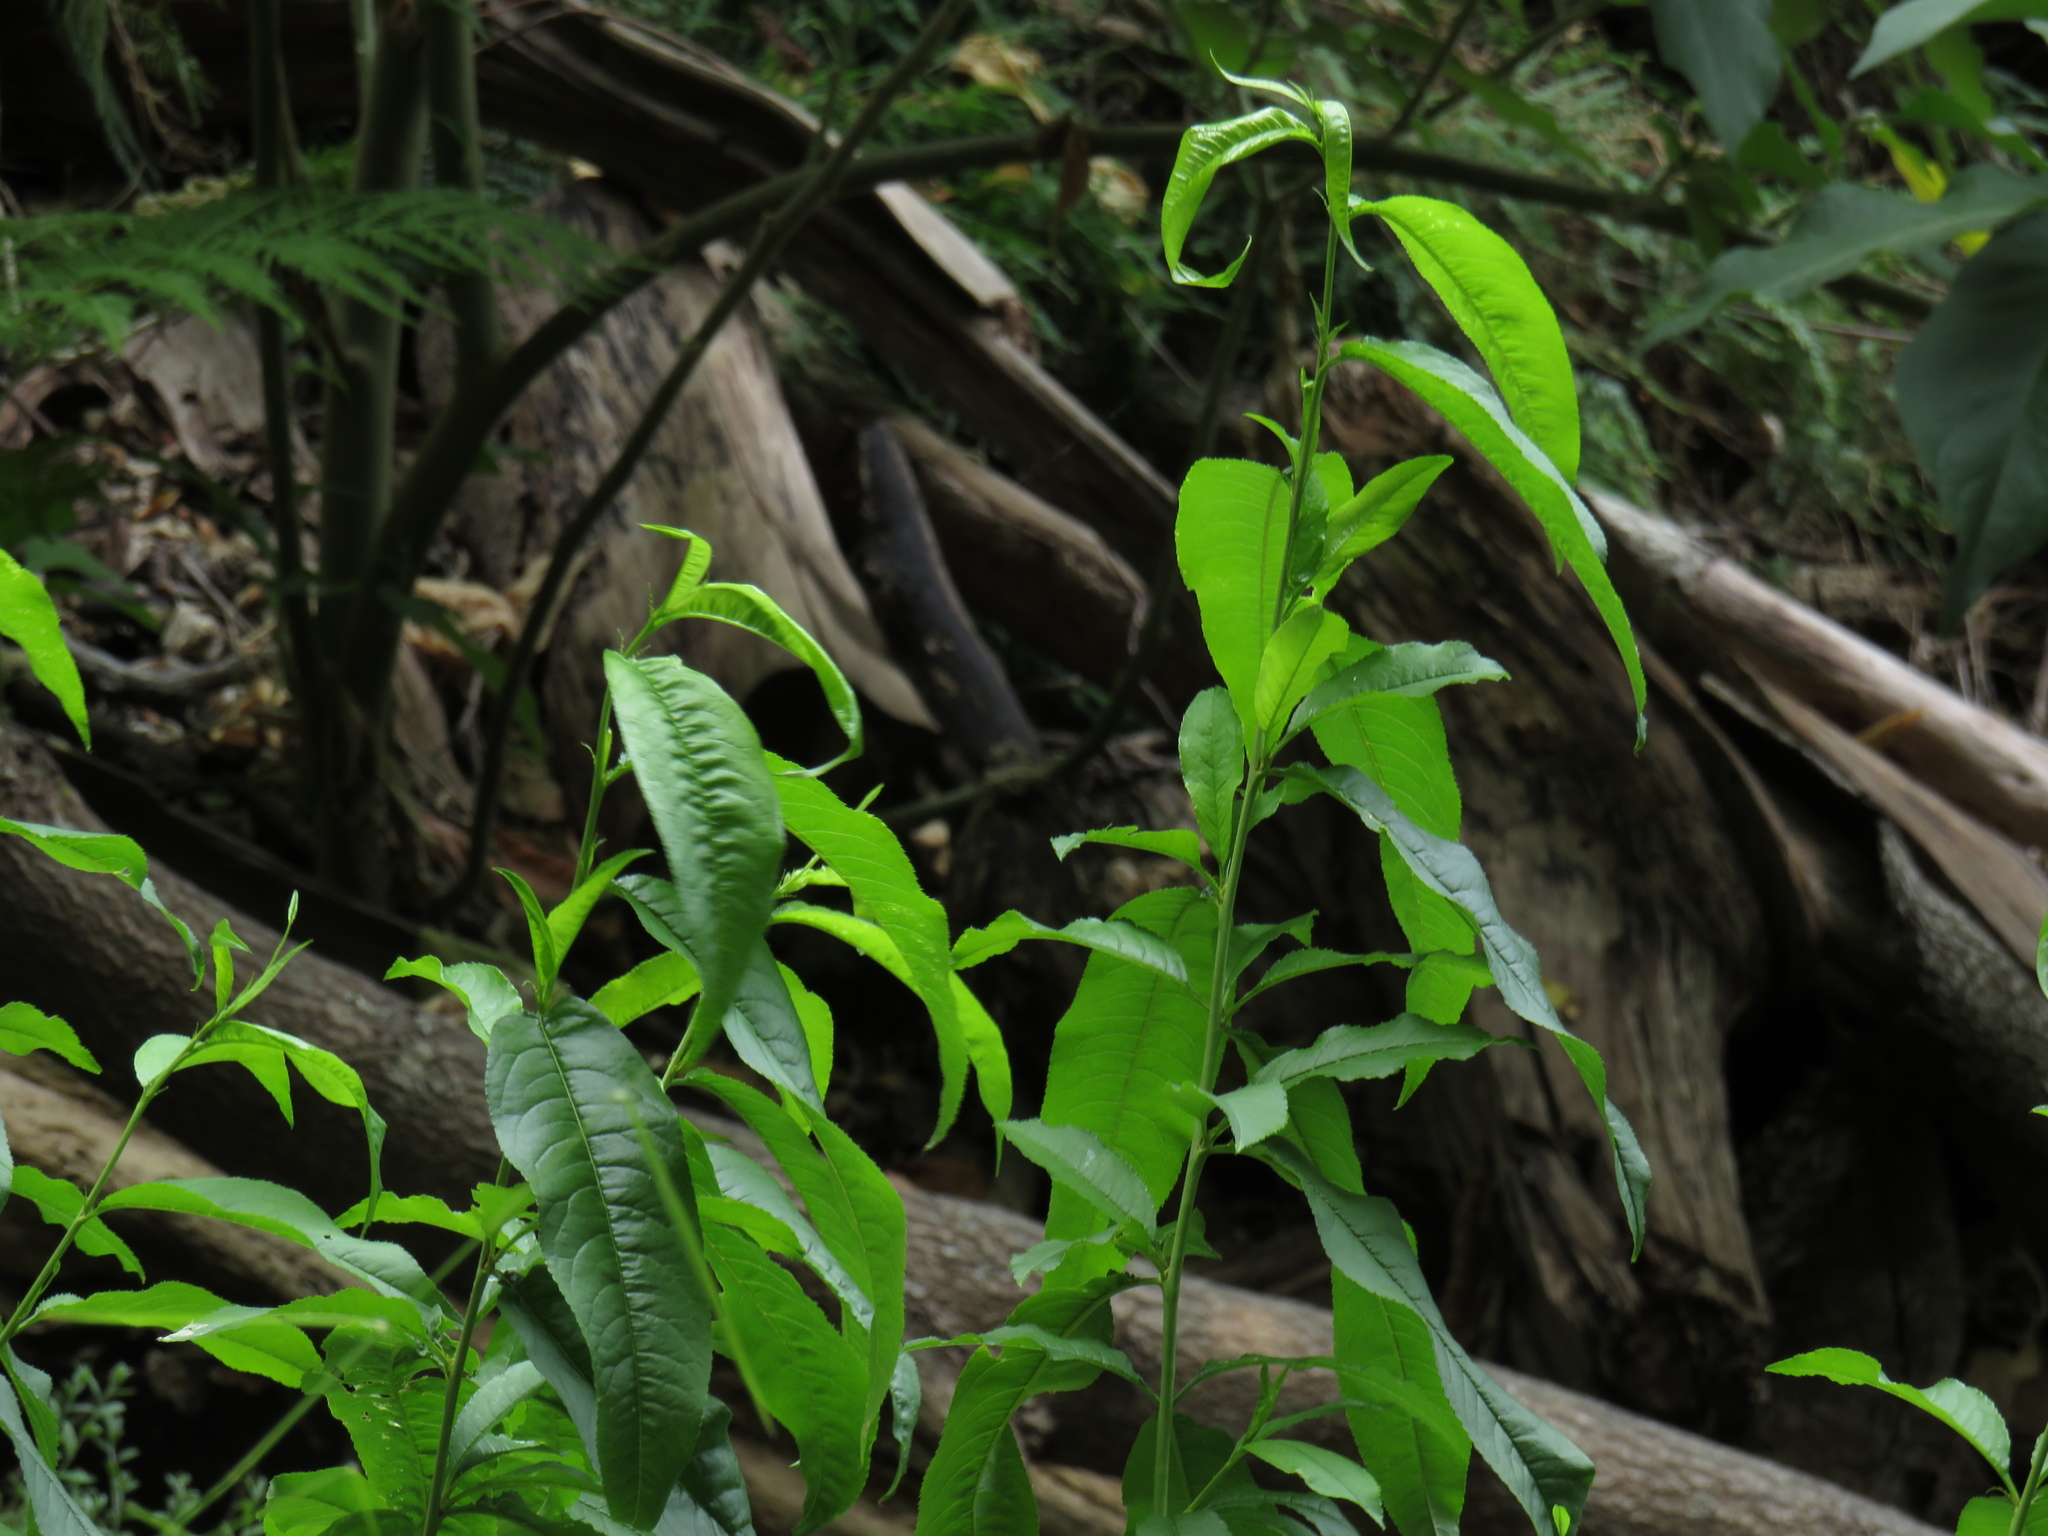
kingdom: Plantae
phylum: Tracheophyta
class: Magnoliopsida
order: Rosales
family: Rosaceae
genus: Prunus
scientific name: Prunus persica
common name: Peach
